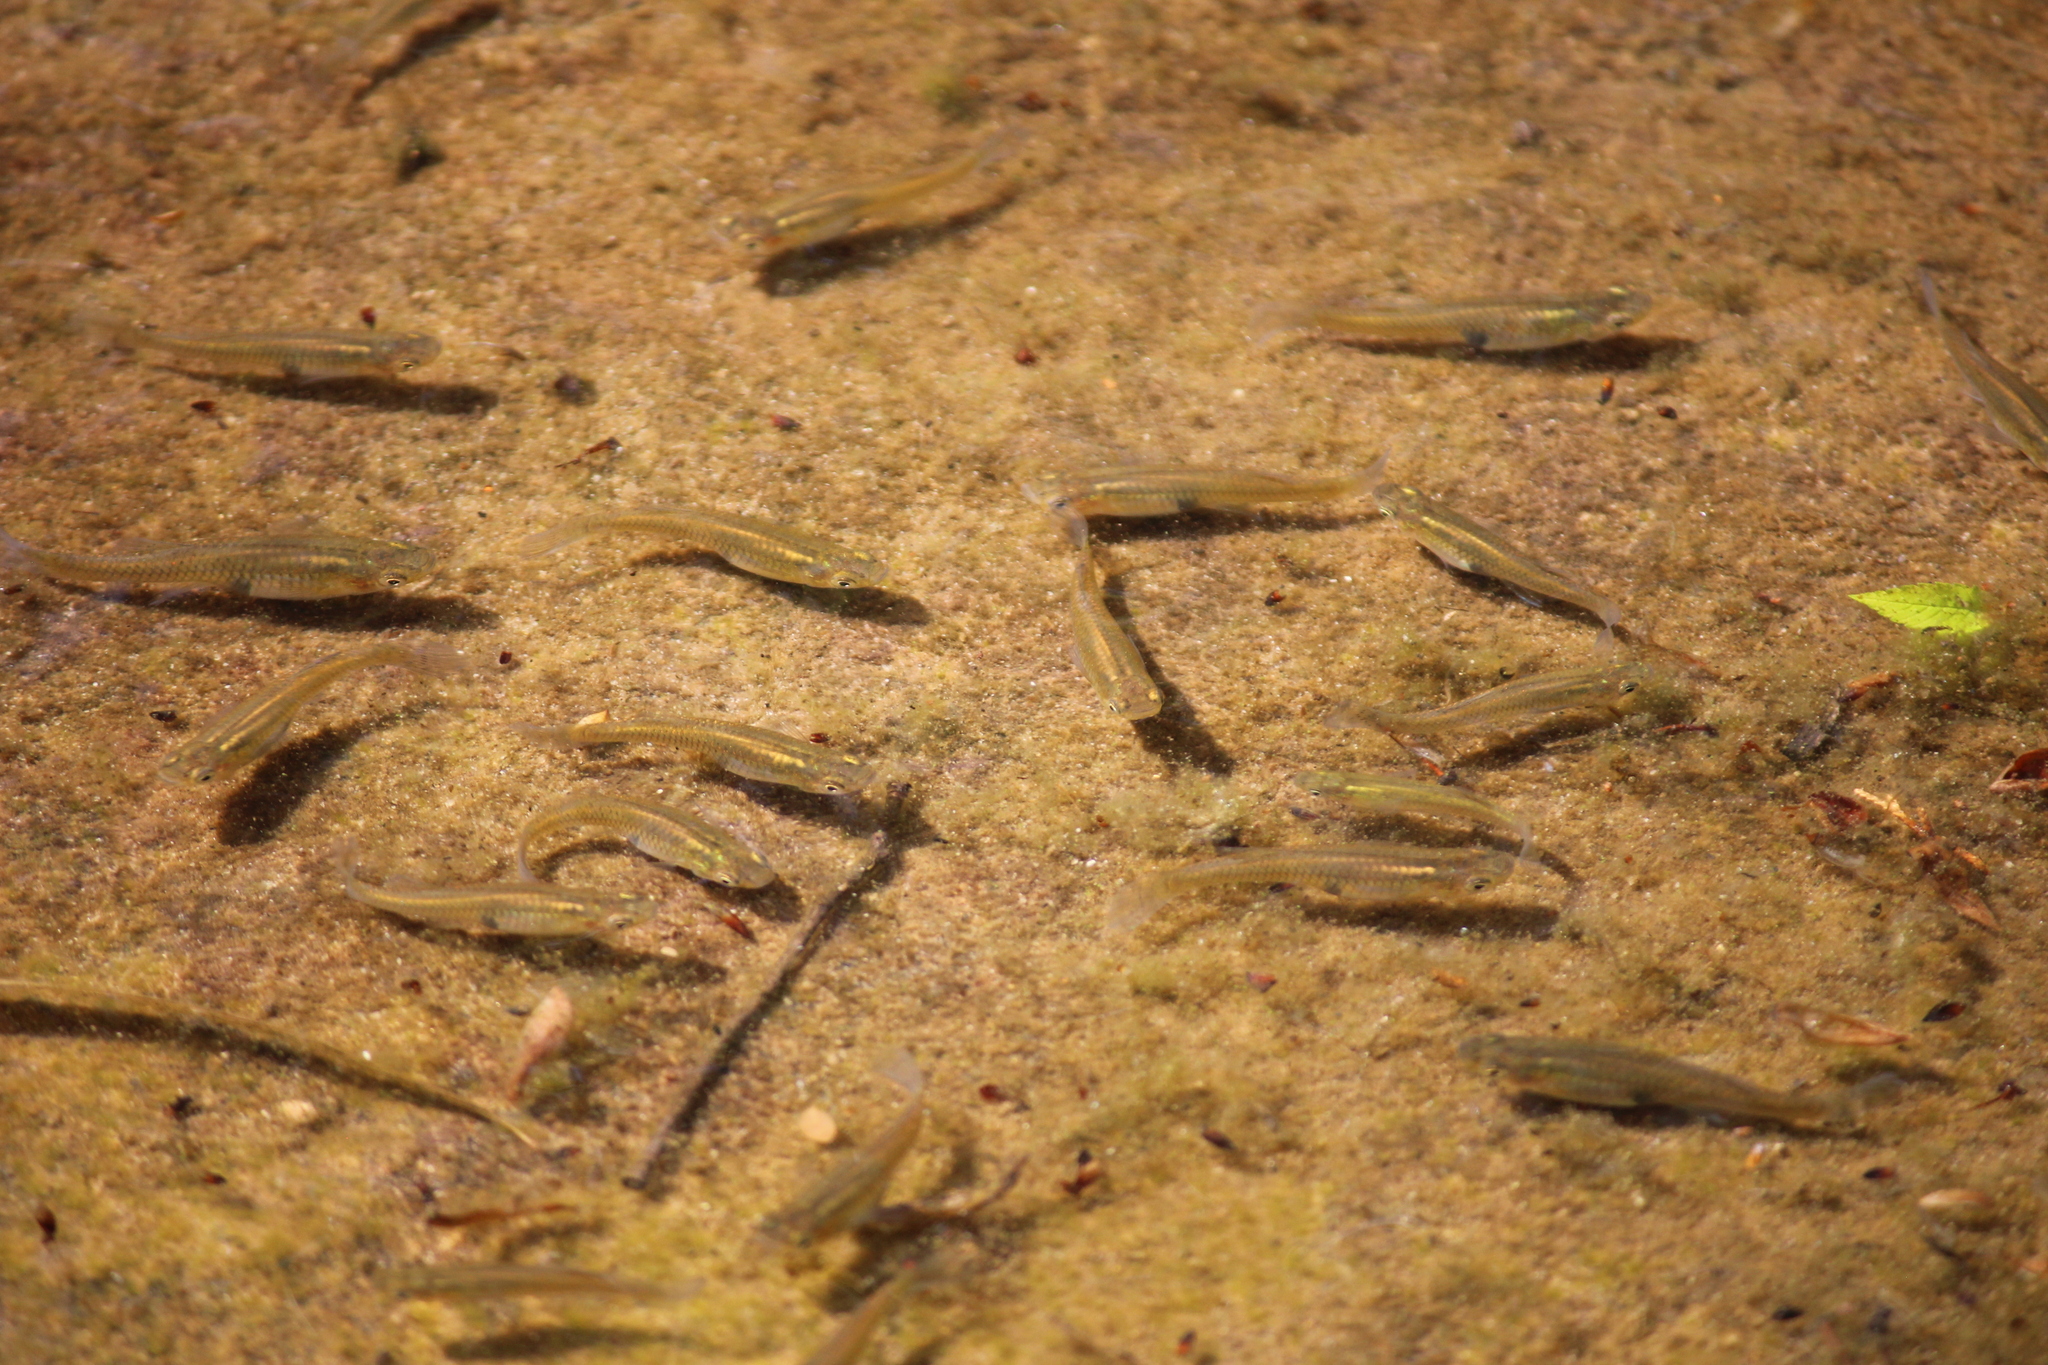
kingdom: Animalia
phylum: Chordata
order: Cyprinodontiformes
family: Poeciliidae
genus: Gambusia
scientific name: Gambusia holbrooki
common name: Eastern mosquitofish
